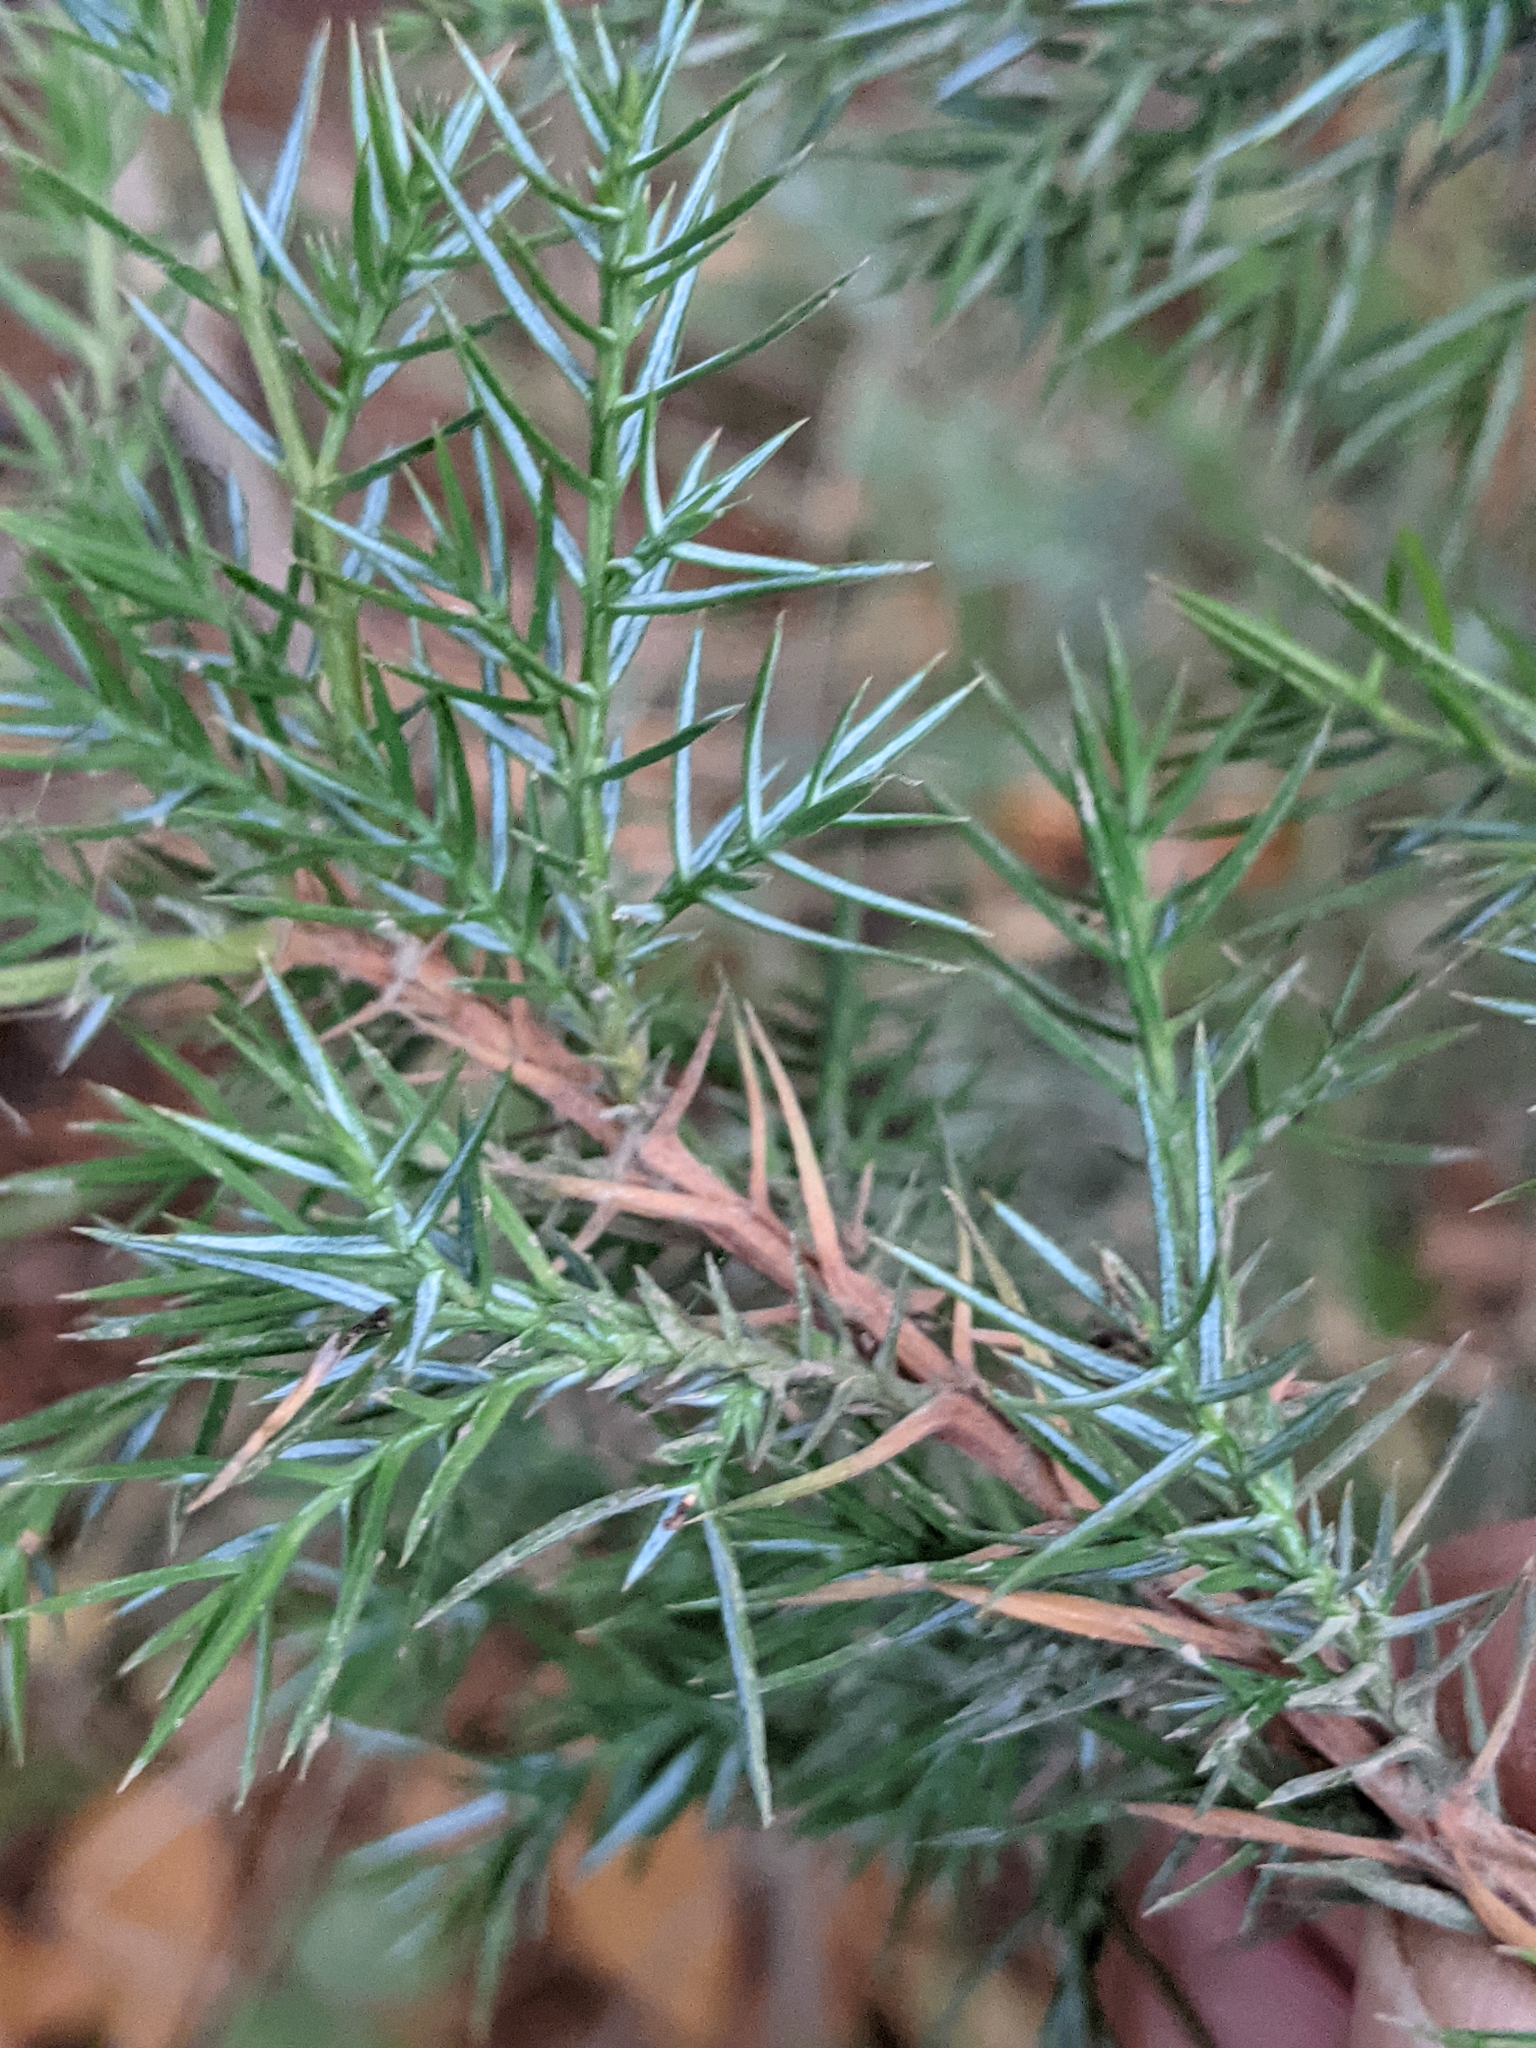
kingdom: Plantae
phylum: Tracheophyta
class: Pinopsida
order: Pinales
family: Cupressaceae
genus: Juniperus
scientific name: Juniperus scopulorum
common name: Rocky mountain juniper
